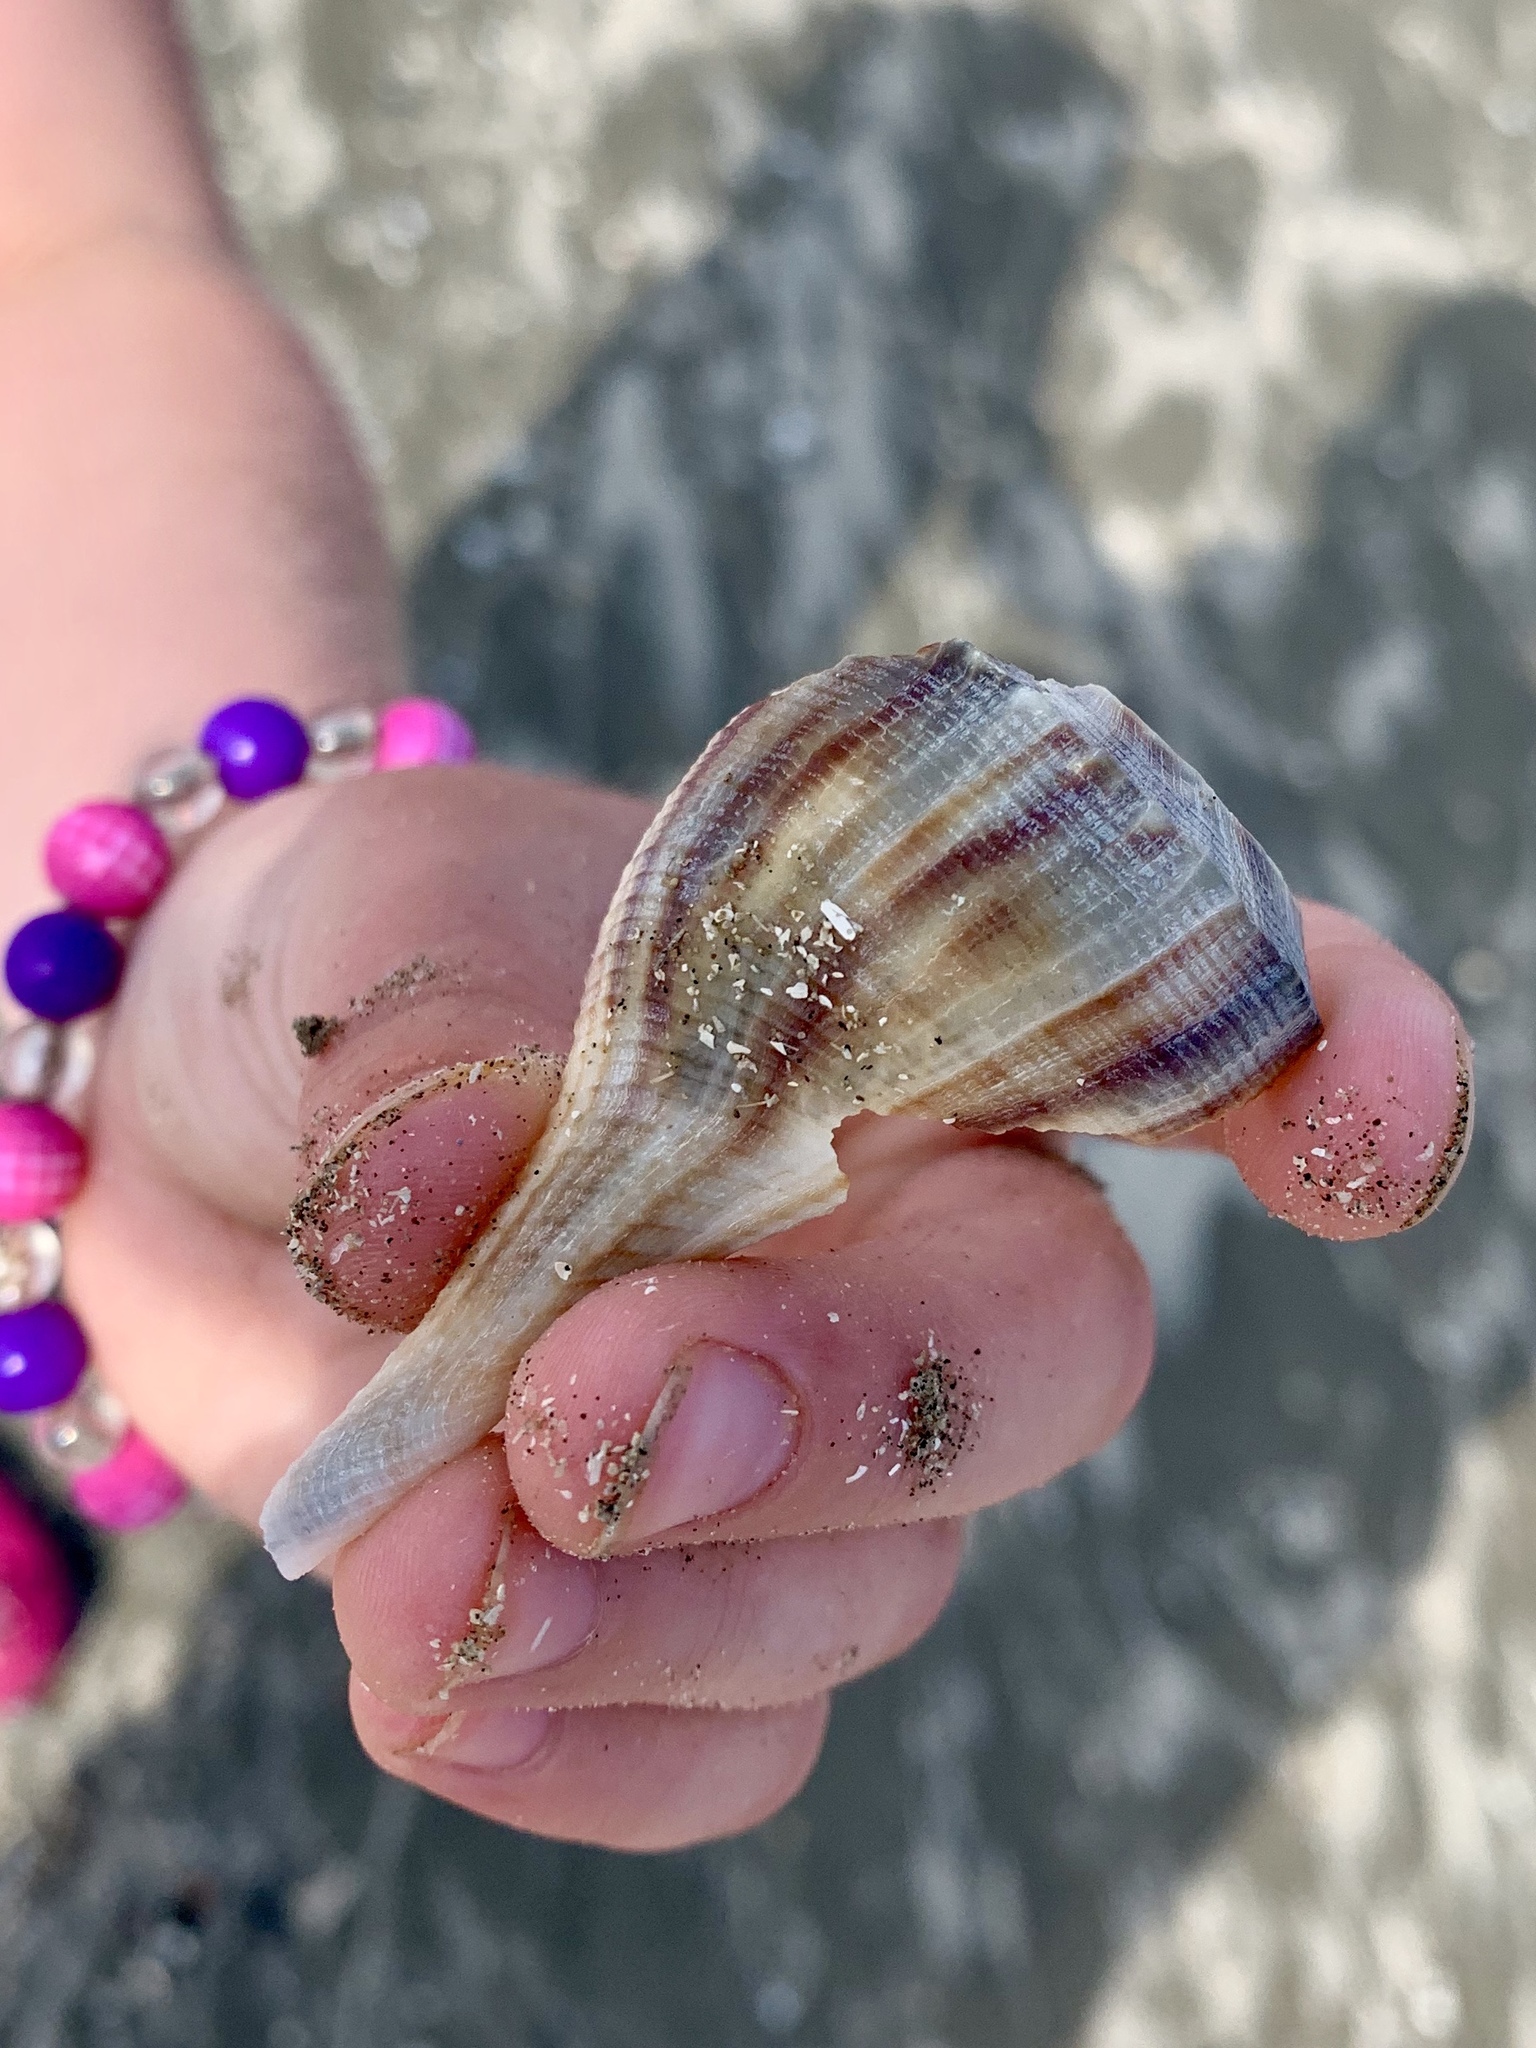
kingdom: Animalia
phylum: Mollusca
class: Gastropoda
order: Neogastropoda
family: Busyconidae
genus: Fulguropsis
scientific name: Fulguropsis plagosa
